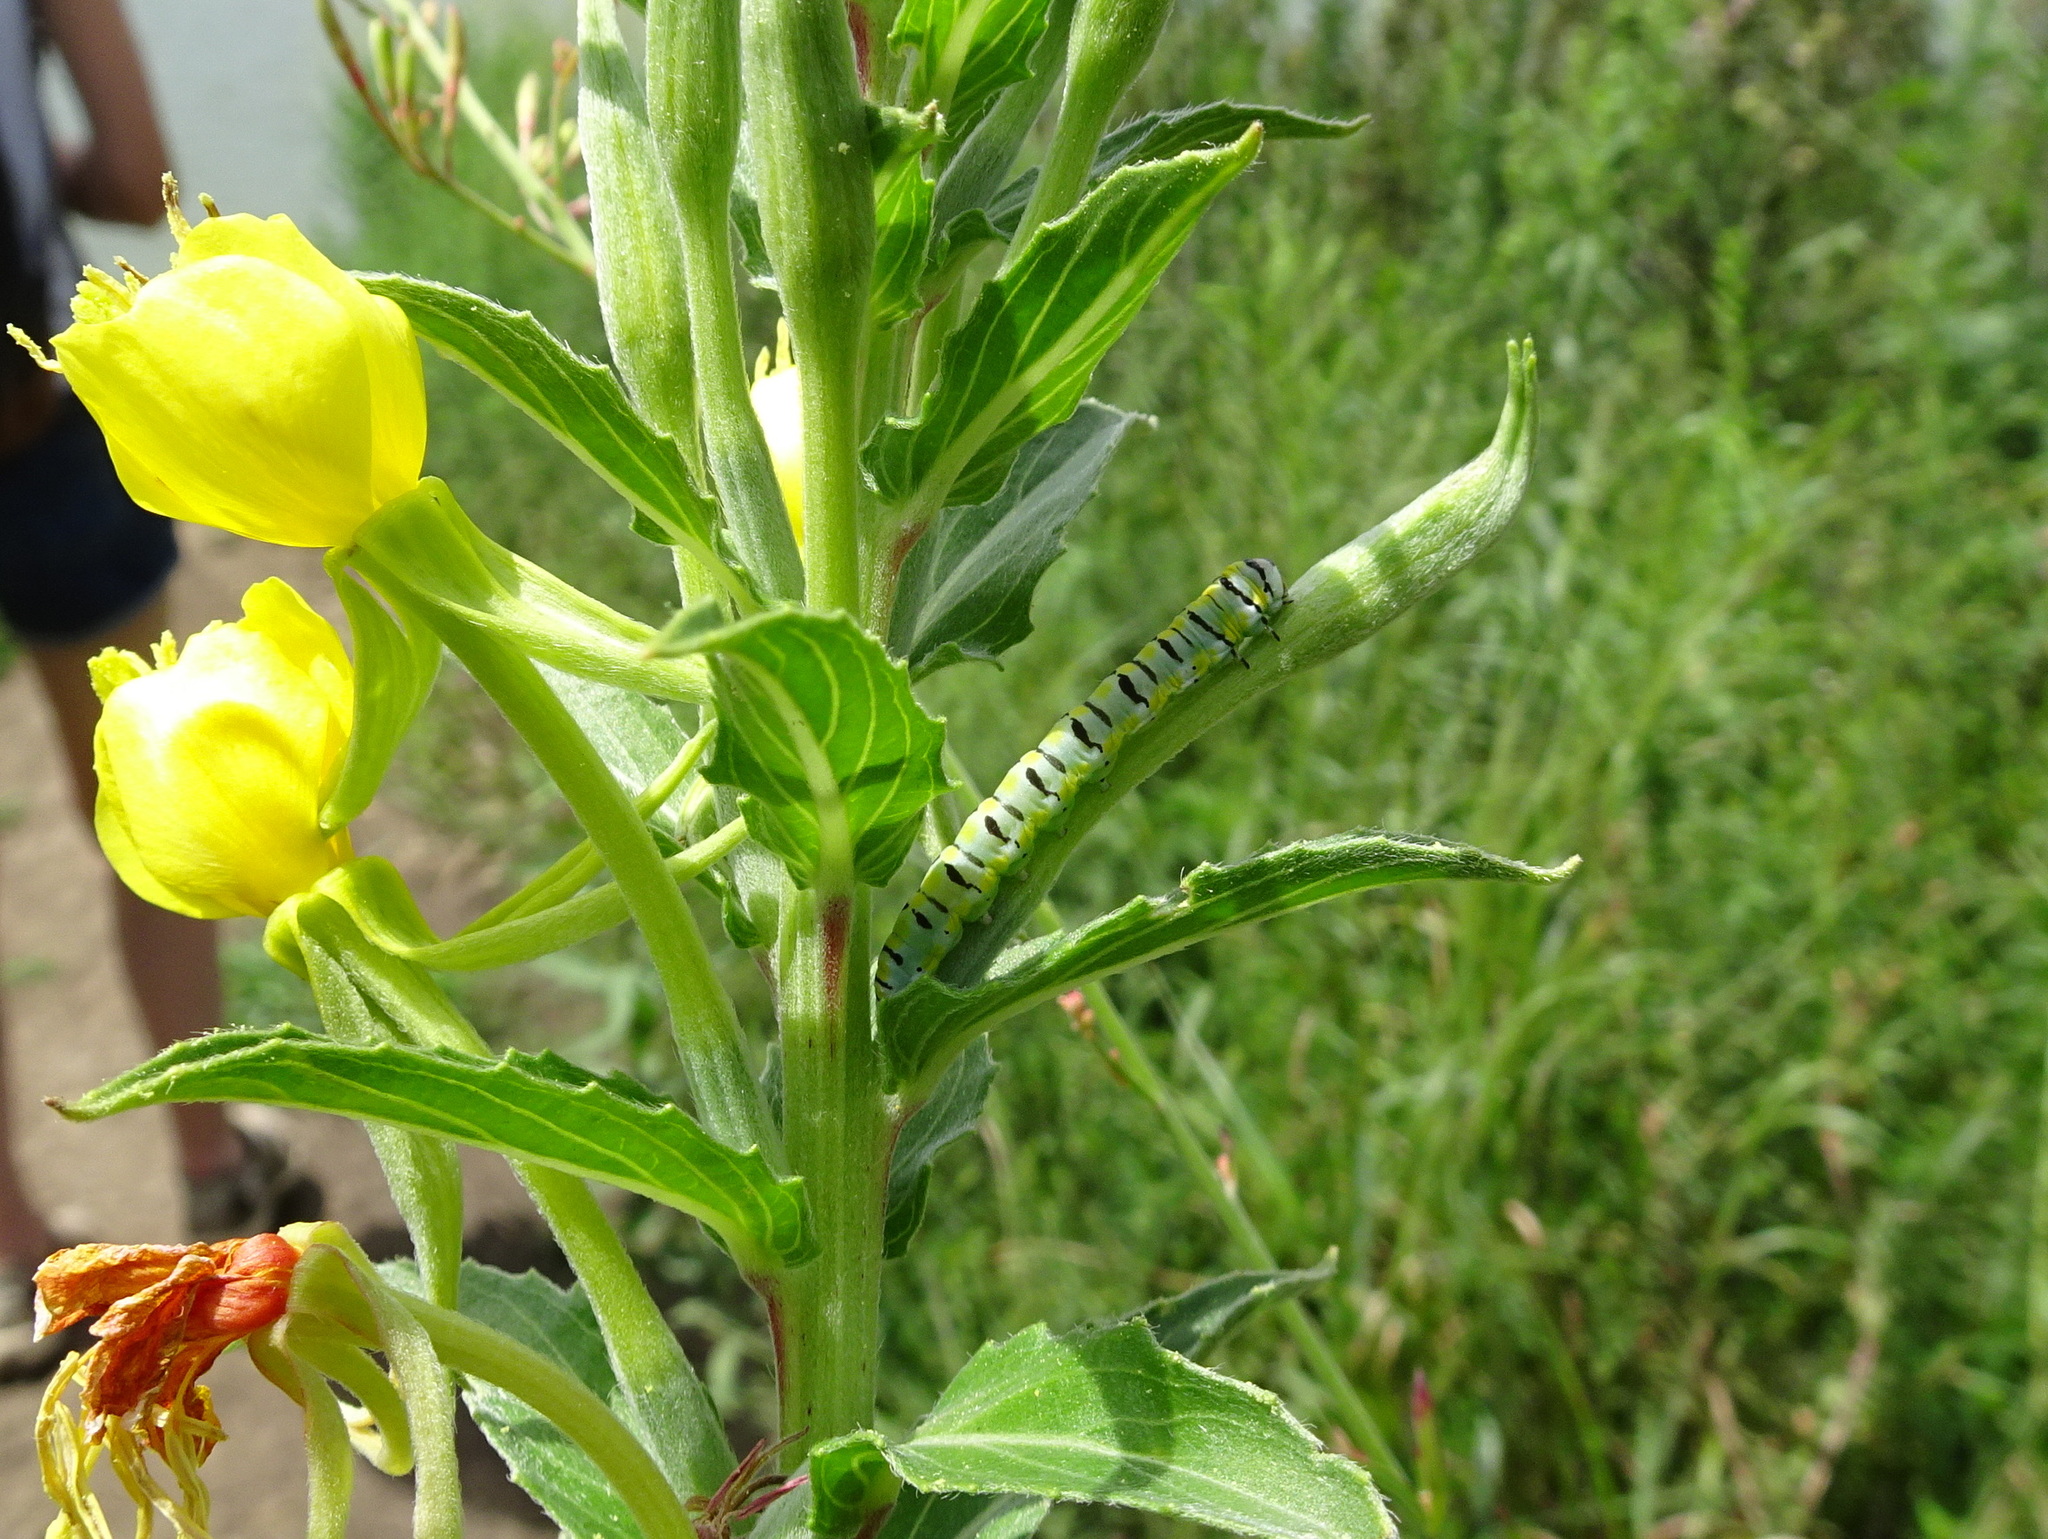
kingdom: Animalia
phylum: Arthropoda
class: Insecta
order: Lepidoptera
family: Noctuidae
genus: Schinia
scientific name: Schinia gaurae
